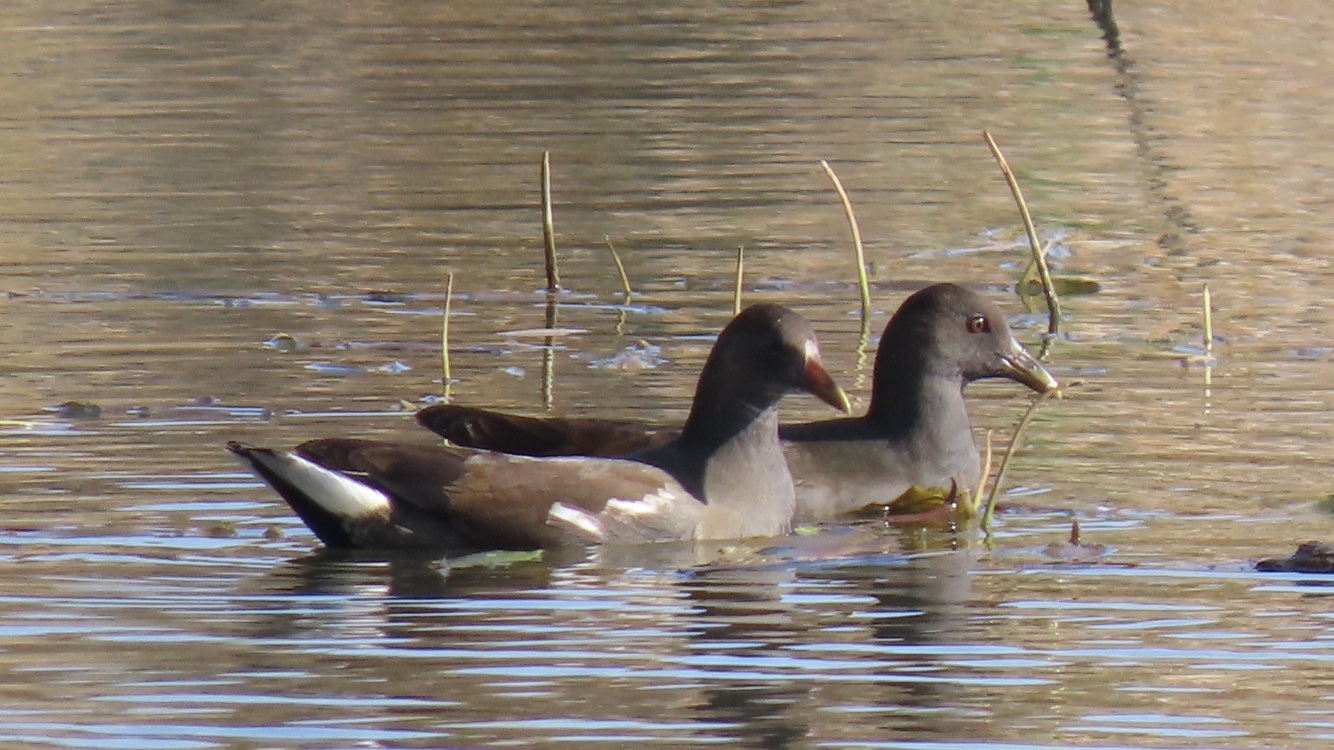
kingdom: Animalia
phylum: Chordata
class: Aves
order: Gruiformes
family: Rallidae
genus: Gallinula
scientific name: Gallinula chloropus
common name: Common moorhen
